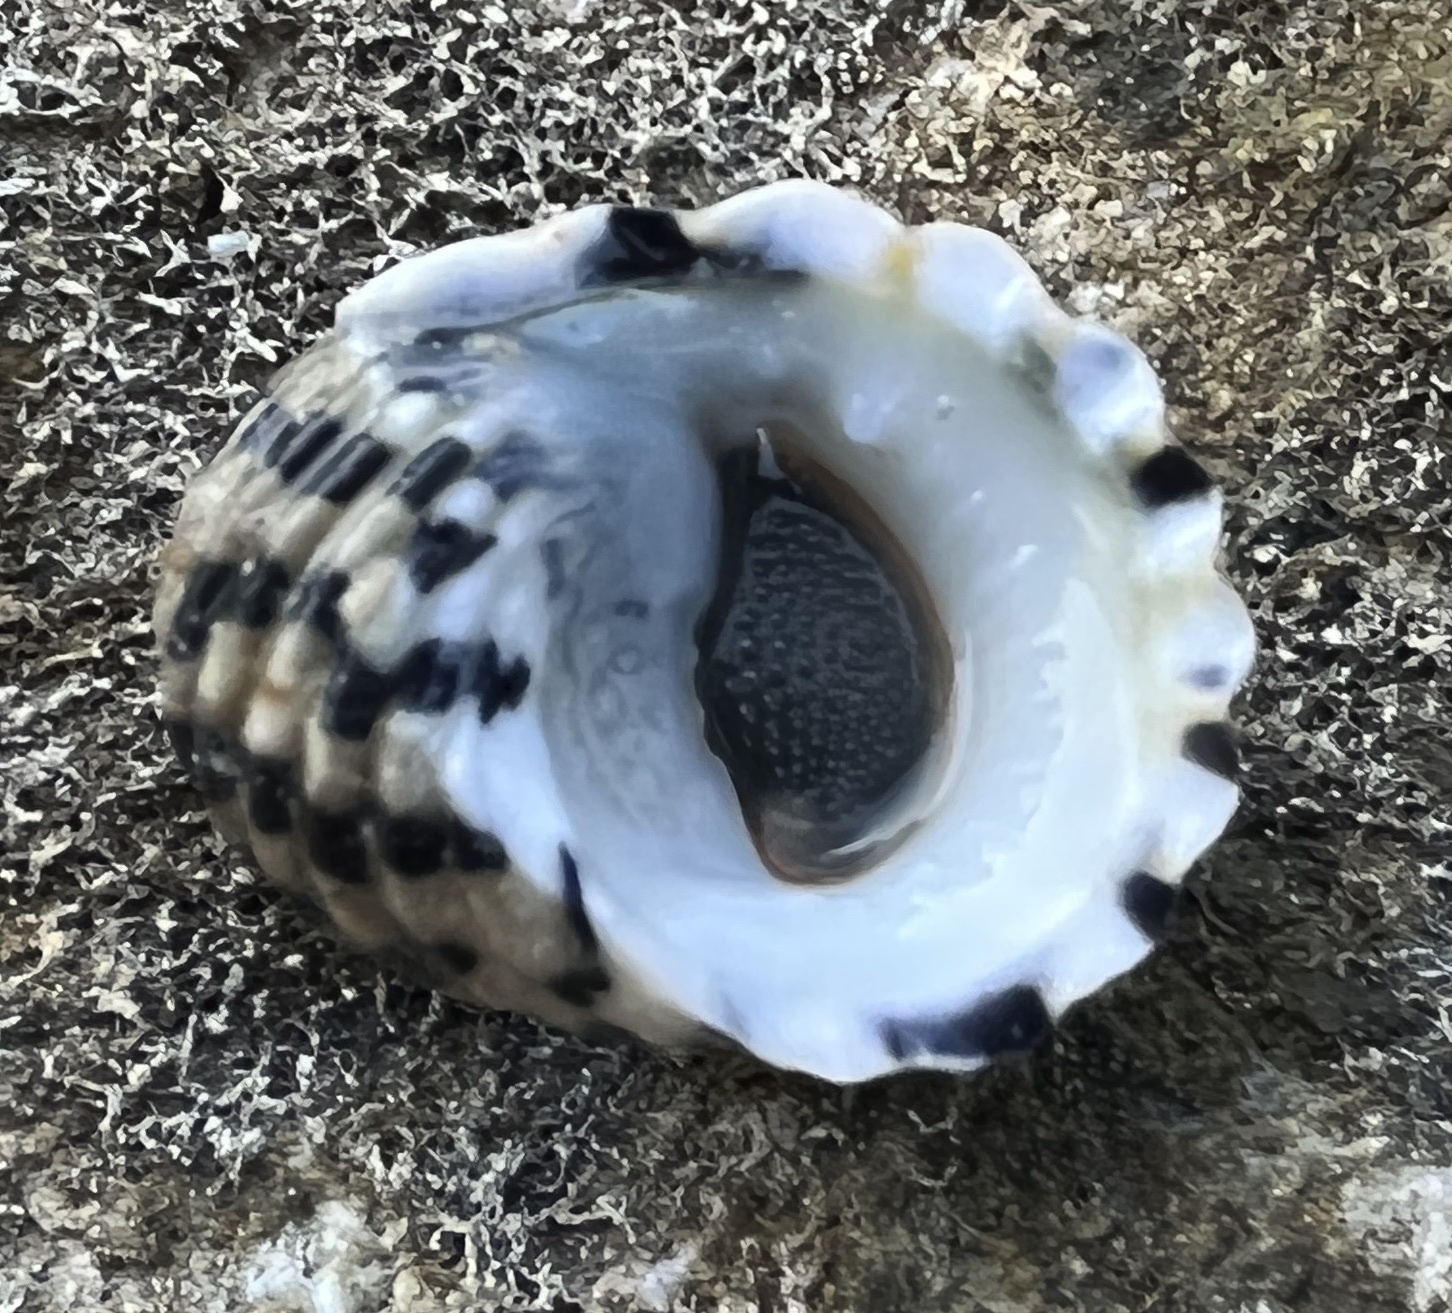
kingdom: Animalia
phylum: Mollusca
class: Gastropoda
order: Cycloneritida
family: Neritidae
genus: Nerita
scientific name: Nerita tessellata
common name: Checkered nerite
